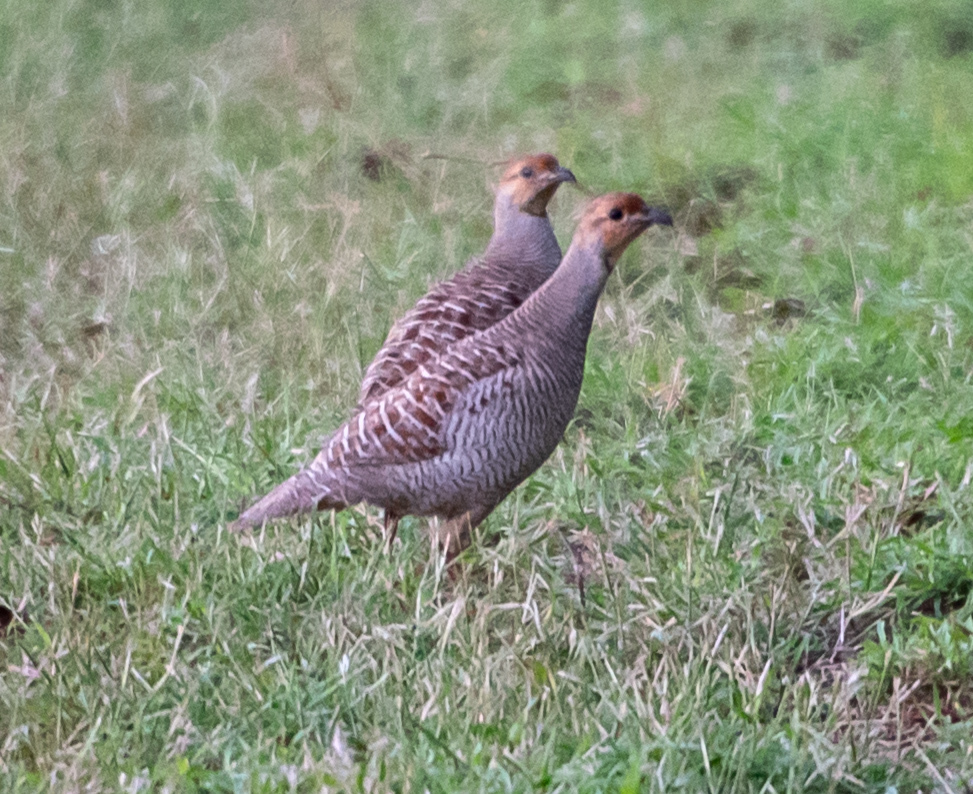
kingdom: Animalia
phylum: Chordata
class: Aves
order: Galliformes
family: Phasianidae
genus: Ortygornis
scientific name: Ortygornis pondicerianus
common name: Grey francolin
